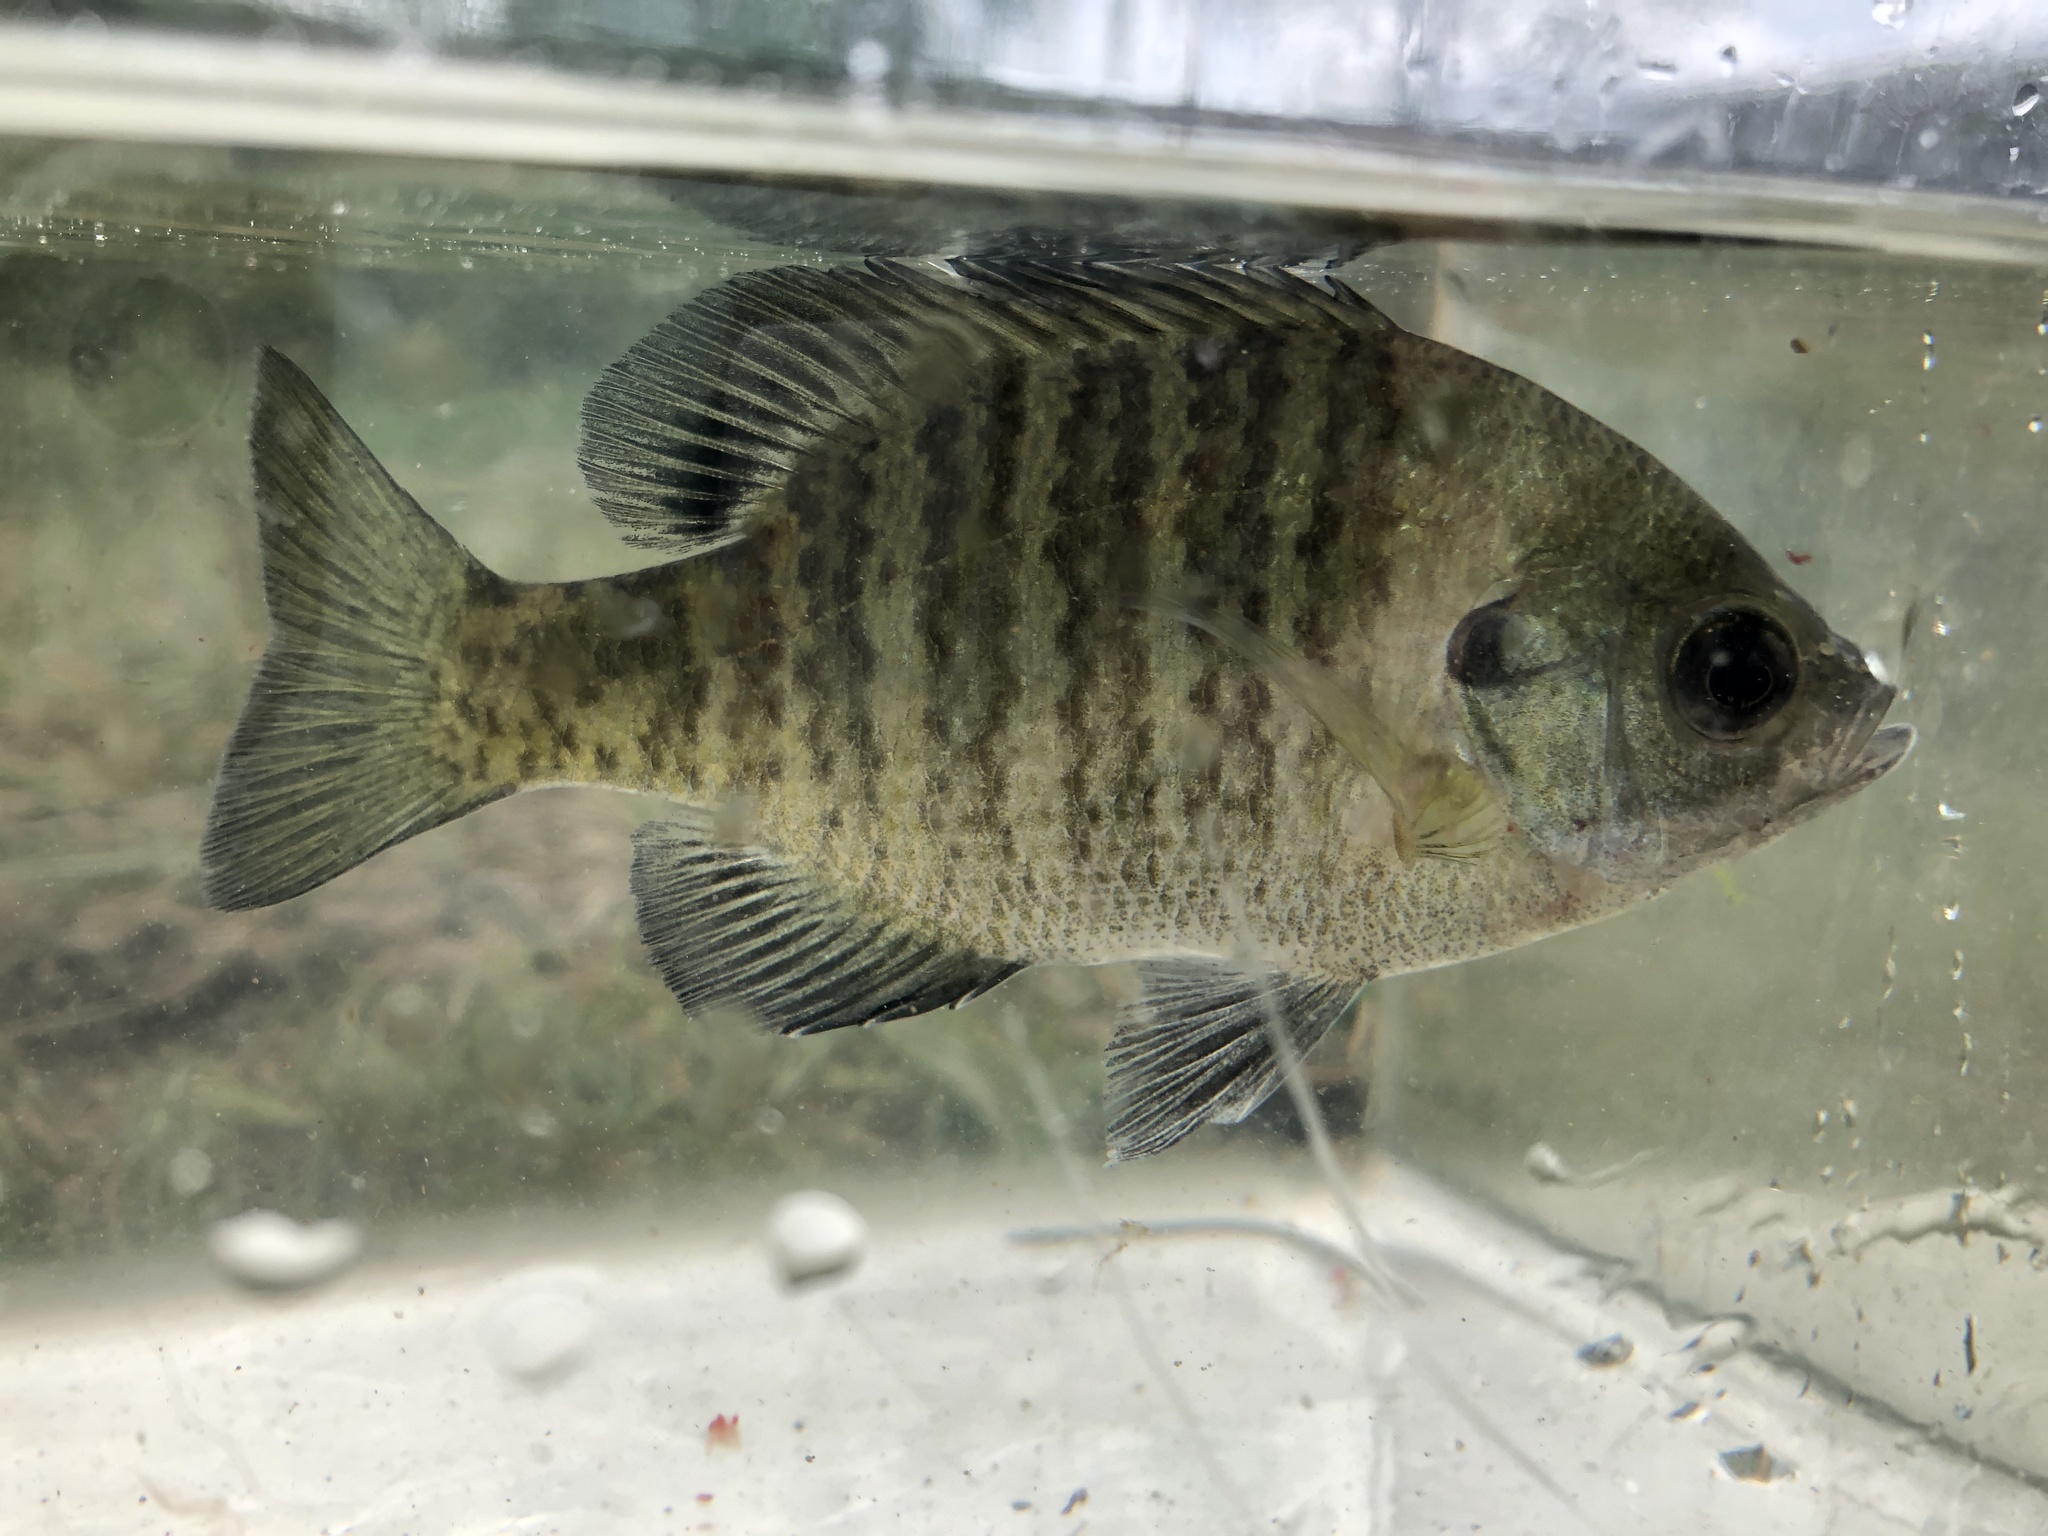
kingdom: Animalia
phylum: Chordata
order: Perciformes
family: Centrarchidae
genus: Lepomis
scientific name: Lepomis macrochirus
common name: Bluegill
